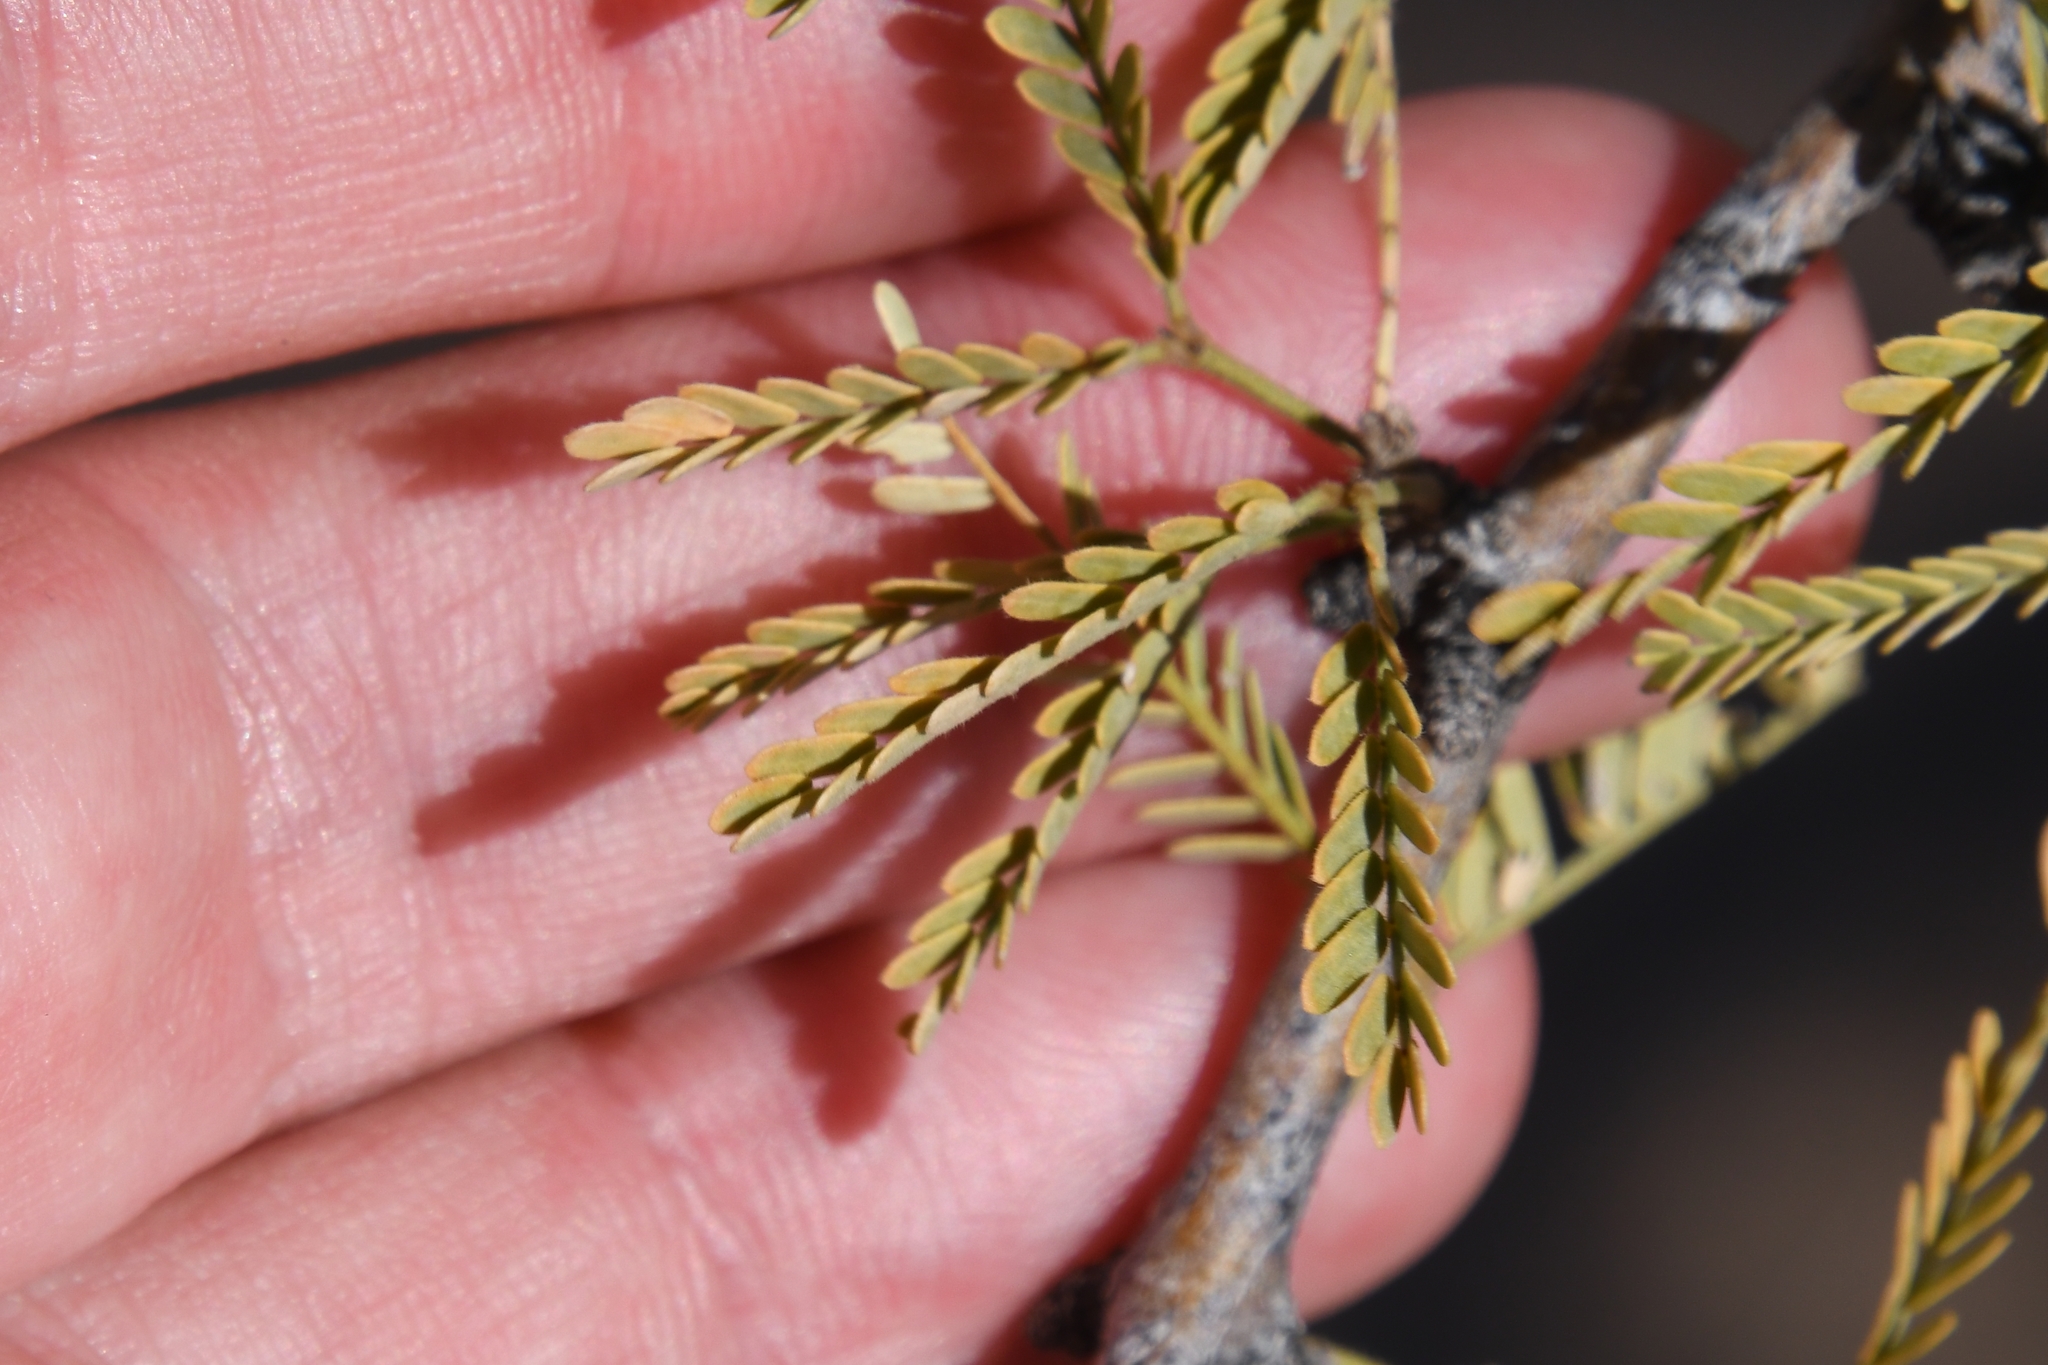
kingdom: Plantae
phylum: Tracheophyta
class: Magnoliopsida
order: Fabales
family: Fabaceae
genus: Prosopis
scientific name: Prosopis velutina
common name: Velvet mesquite
